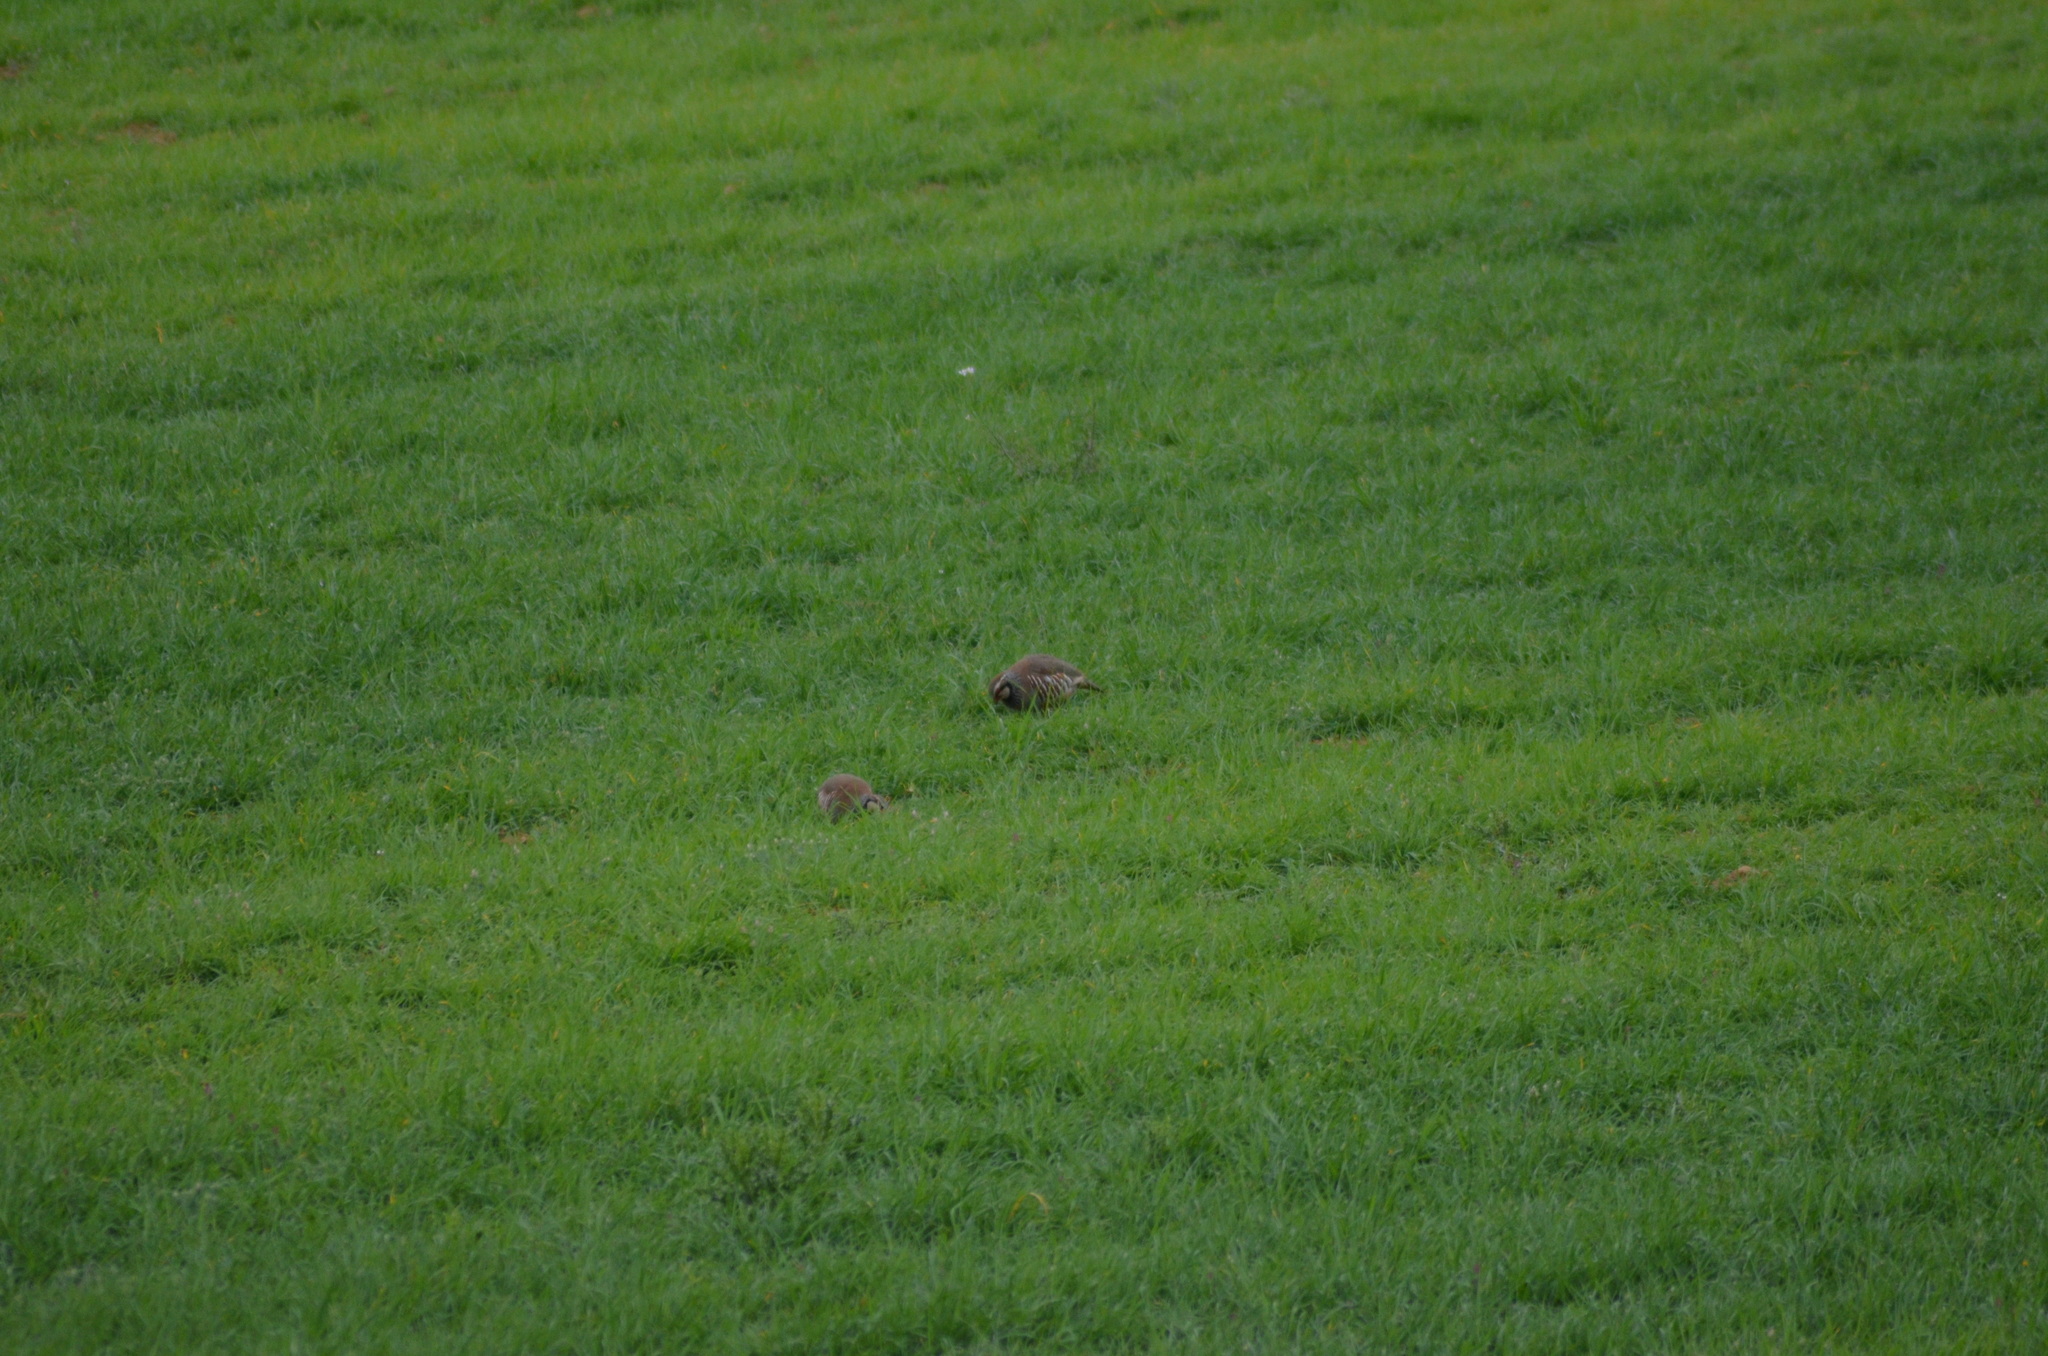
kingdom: Animalia
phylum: Chordata
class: Aves
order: Galliformes
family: Phasianidae
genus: Alectoris
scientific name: Alectoris rufa
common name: Red-legged partridge
